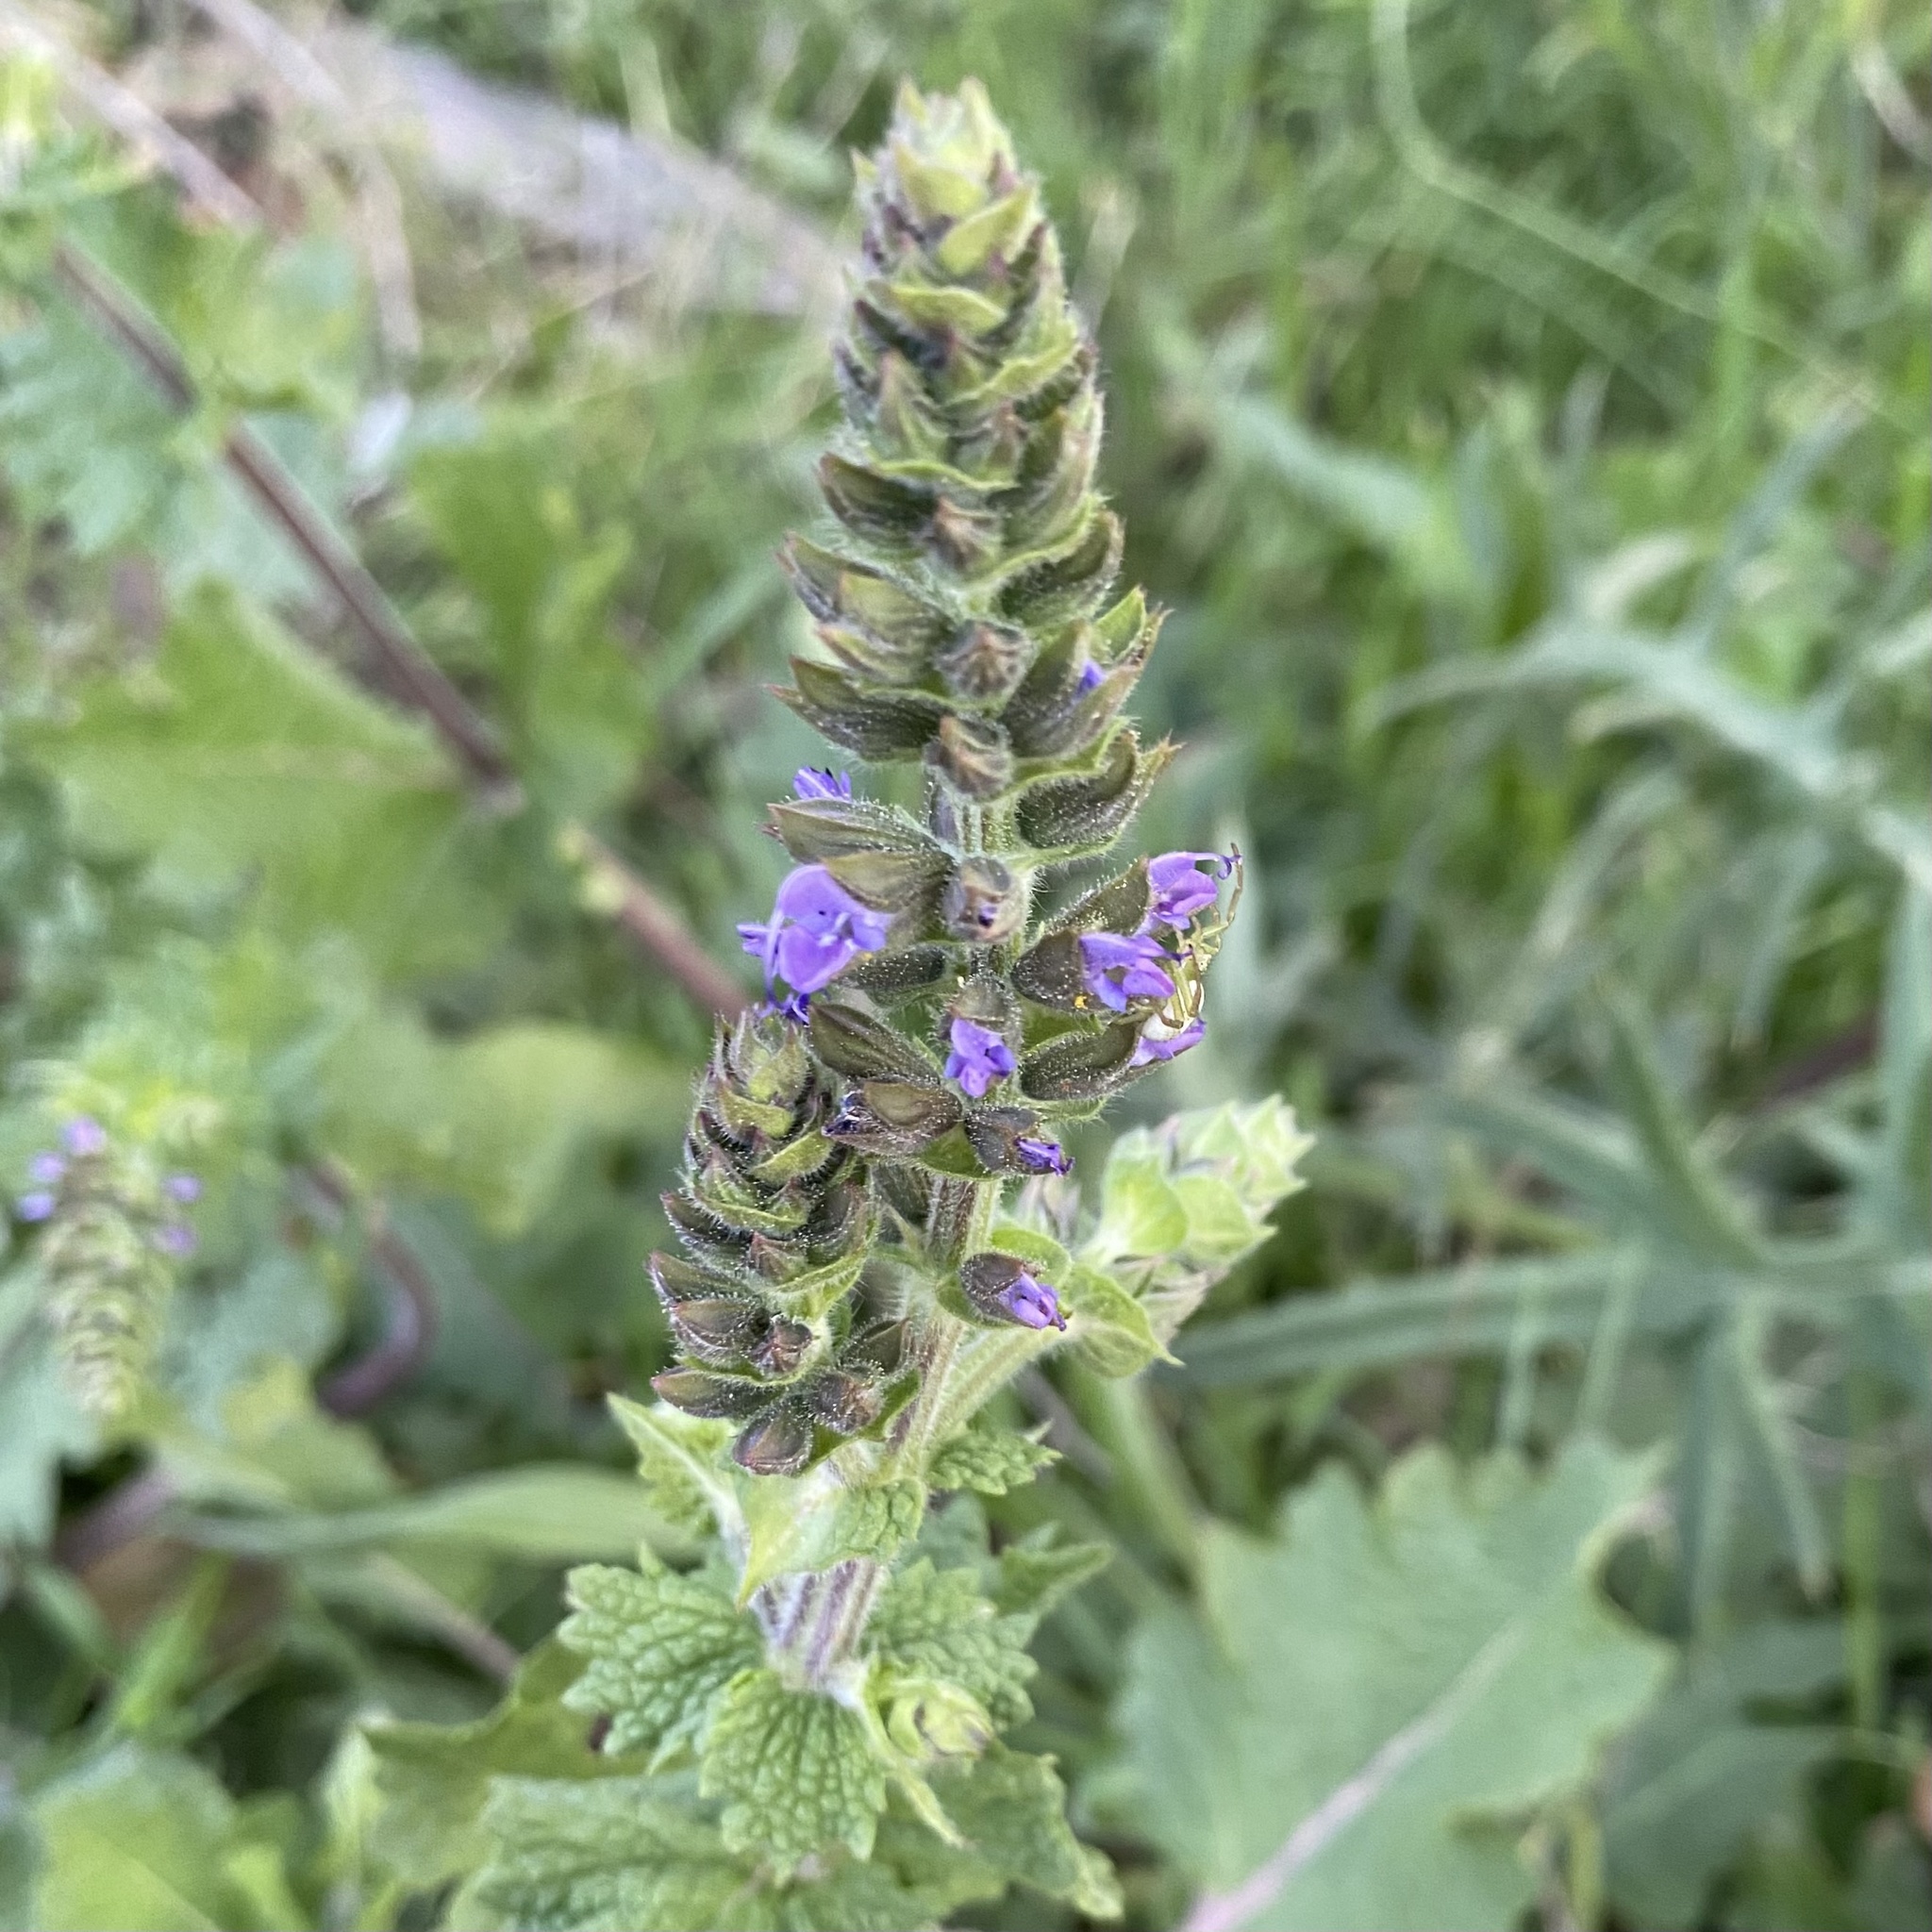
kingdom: Plantae
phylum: Tracheophyta
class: Magnoliopsida
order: Lamiales
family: Lamiaceae
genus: Salvia
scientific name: Salvia verbenaca
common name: Wild clary
